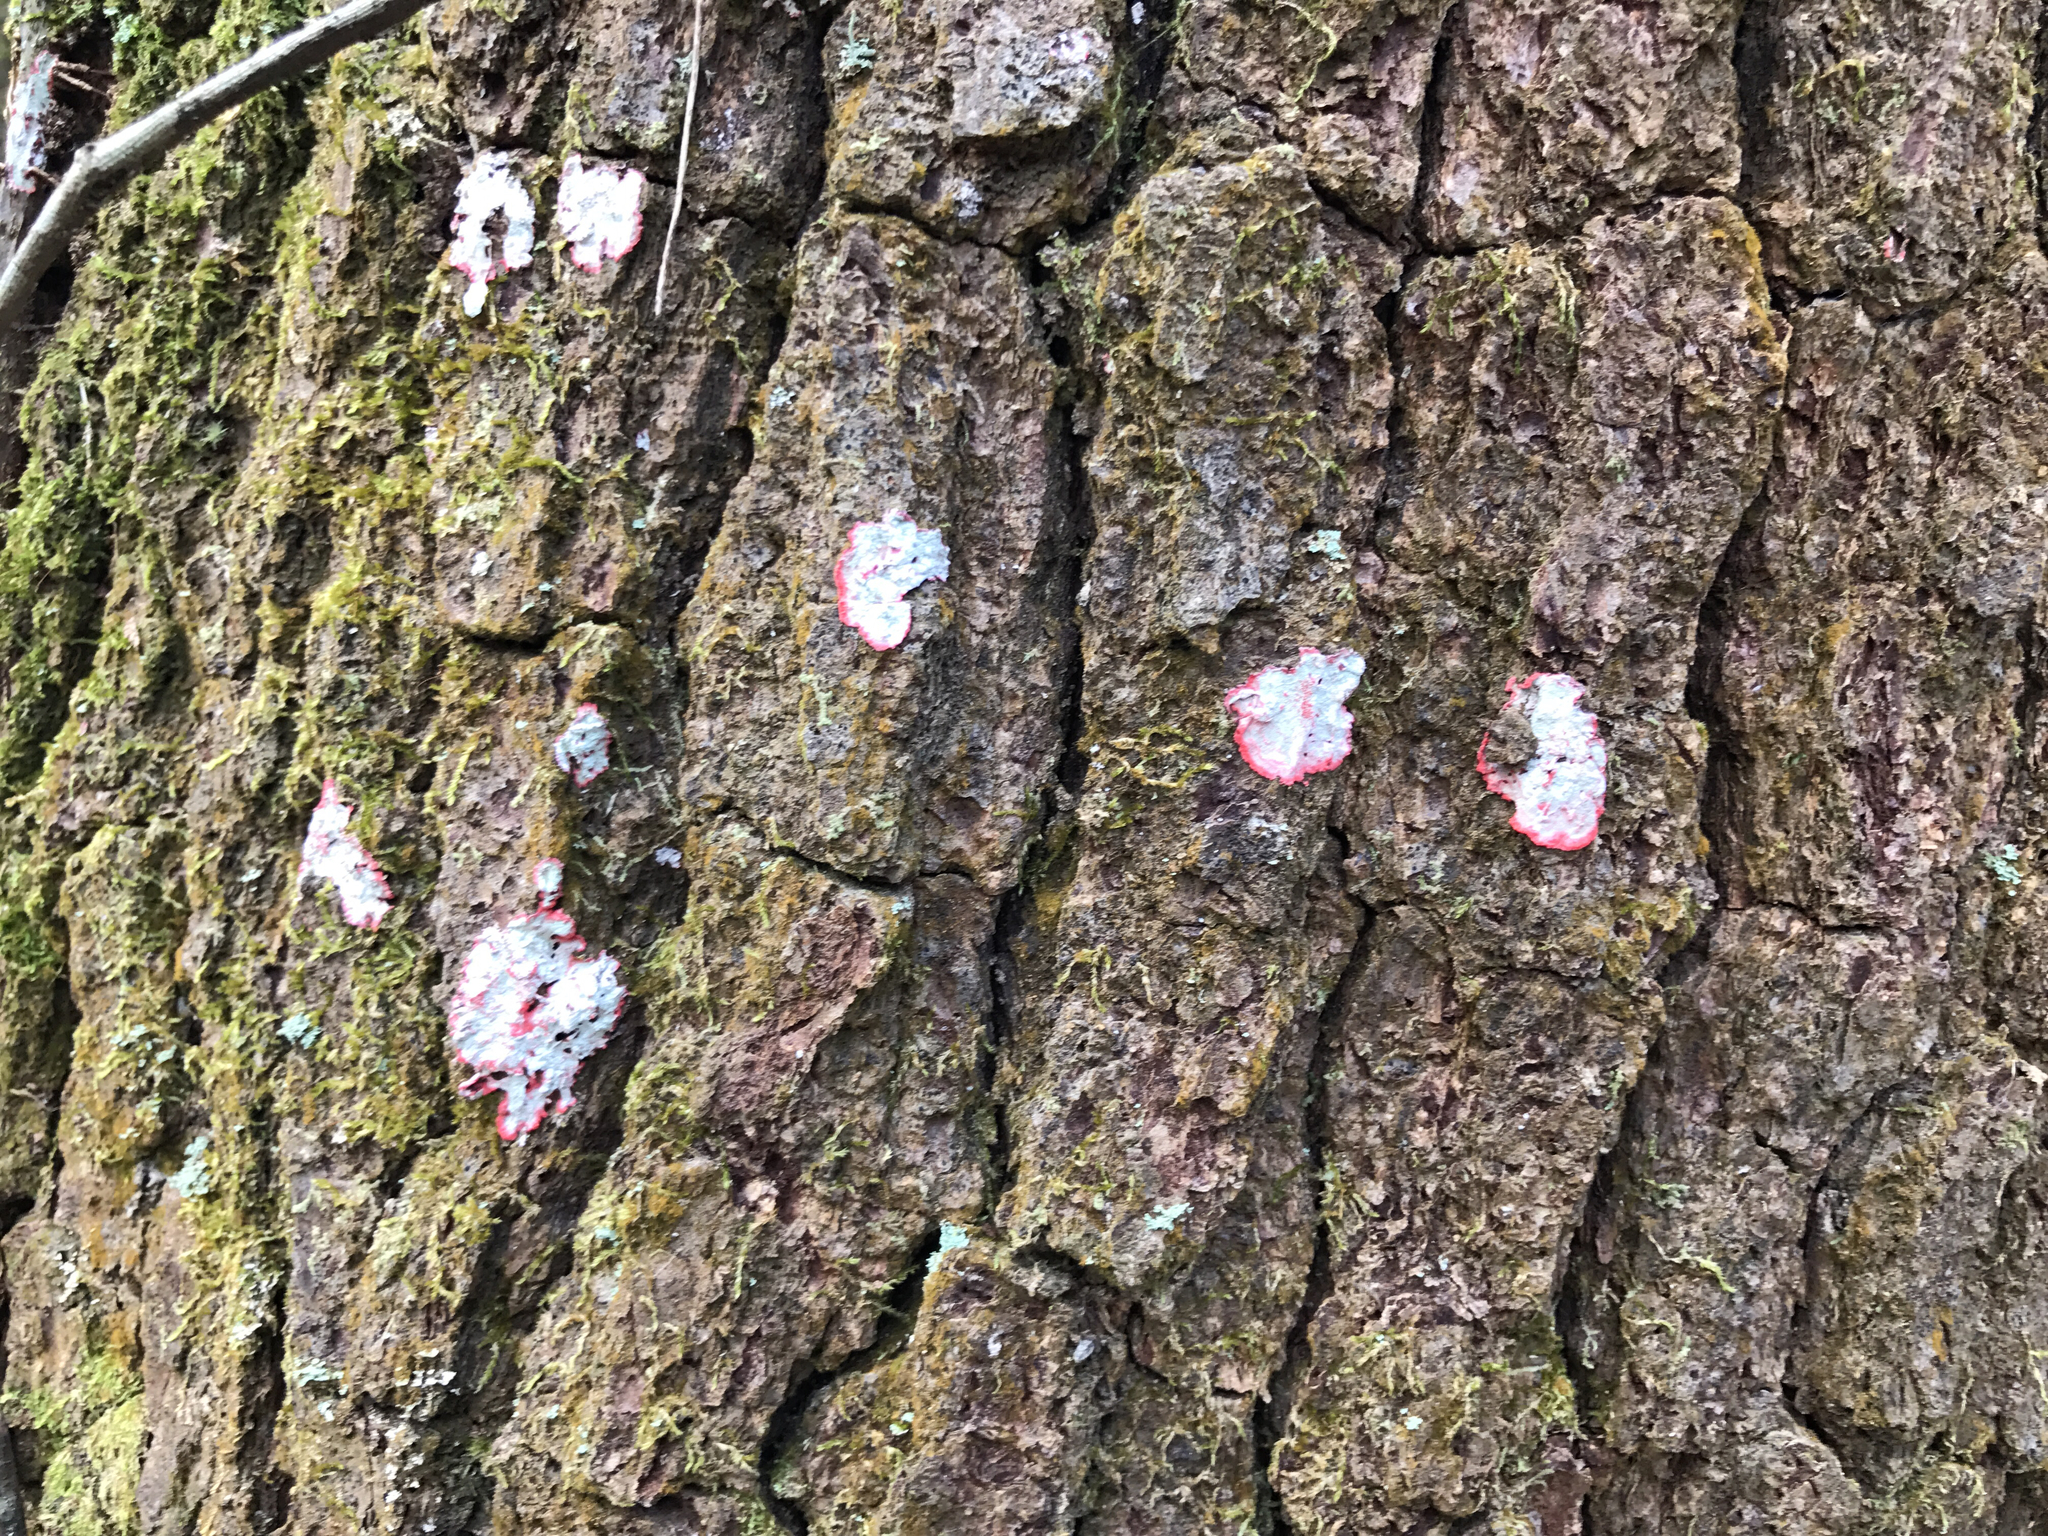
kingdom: Fungi
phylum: Ascomycota
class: Arthoniomycetes
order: Arthoniales
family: Arthoniaceae
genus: Herpothallon
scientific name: Herpothallon rubrocinctum
